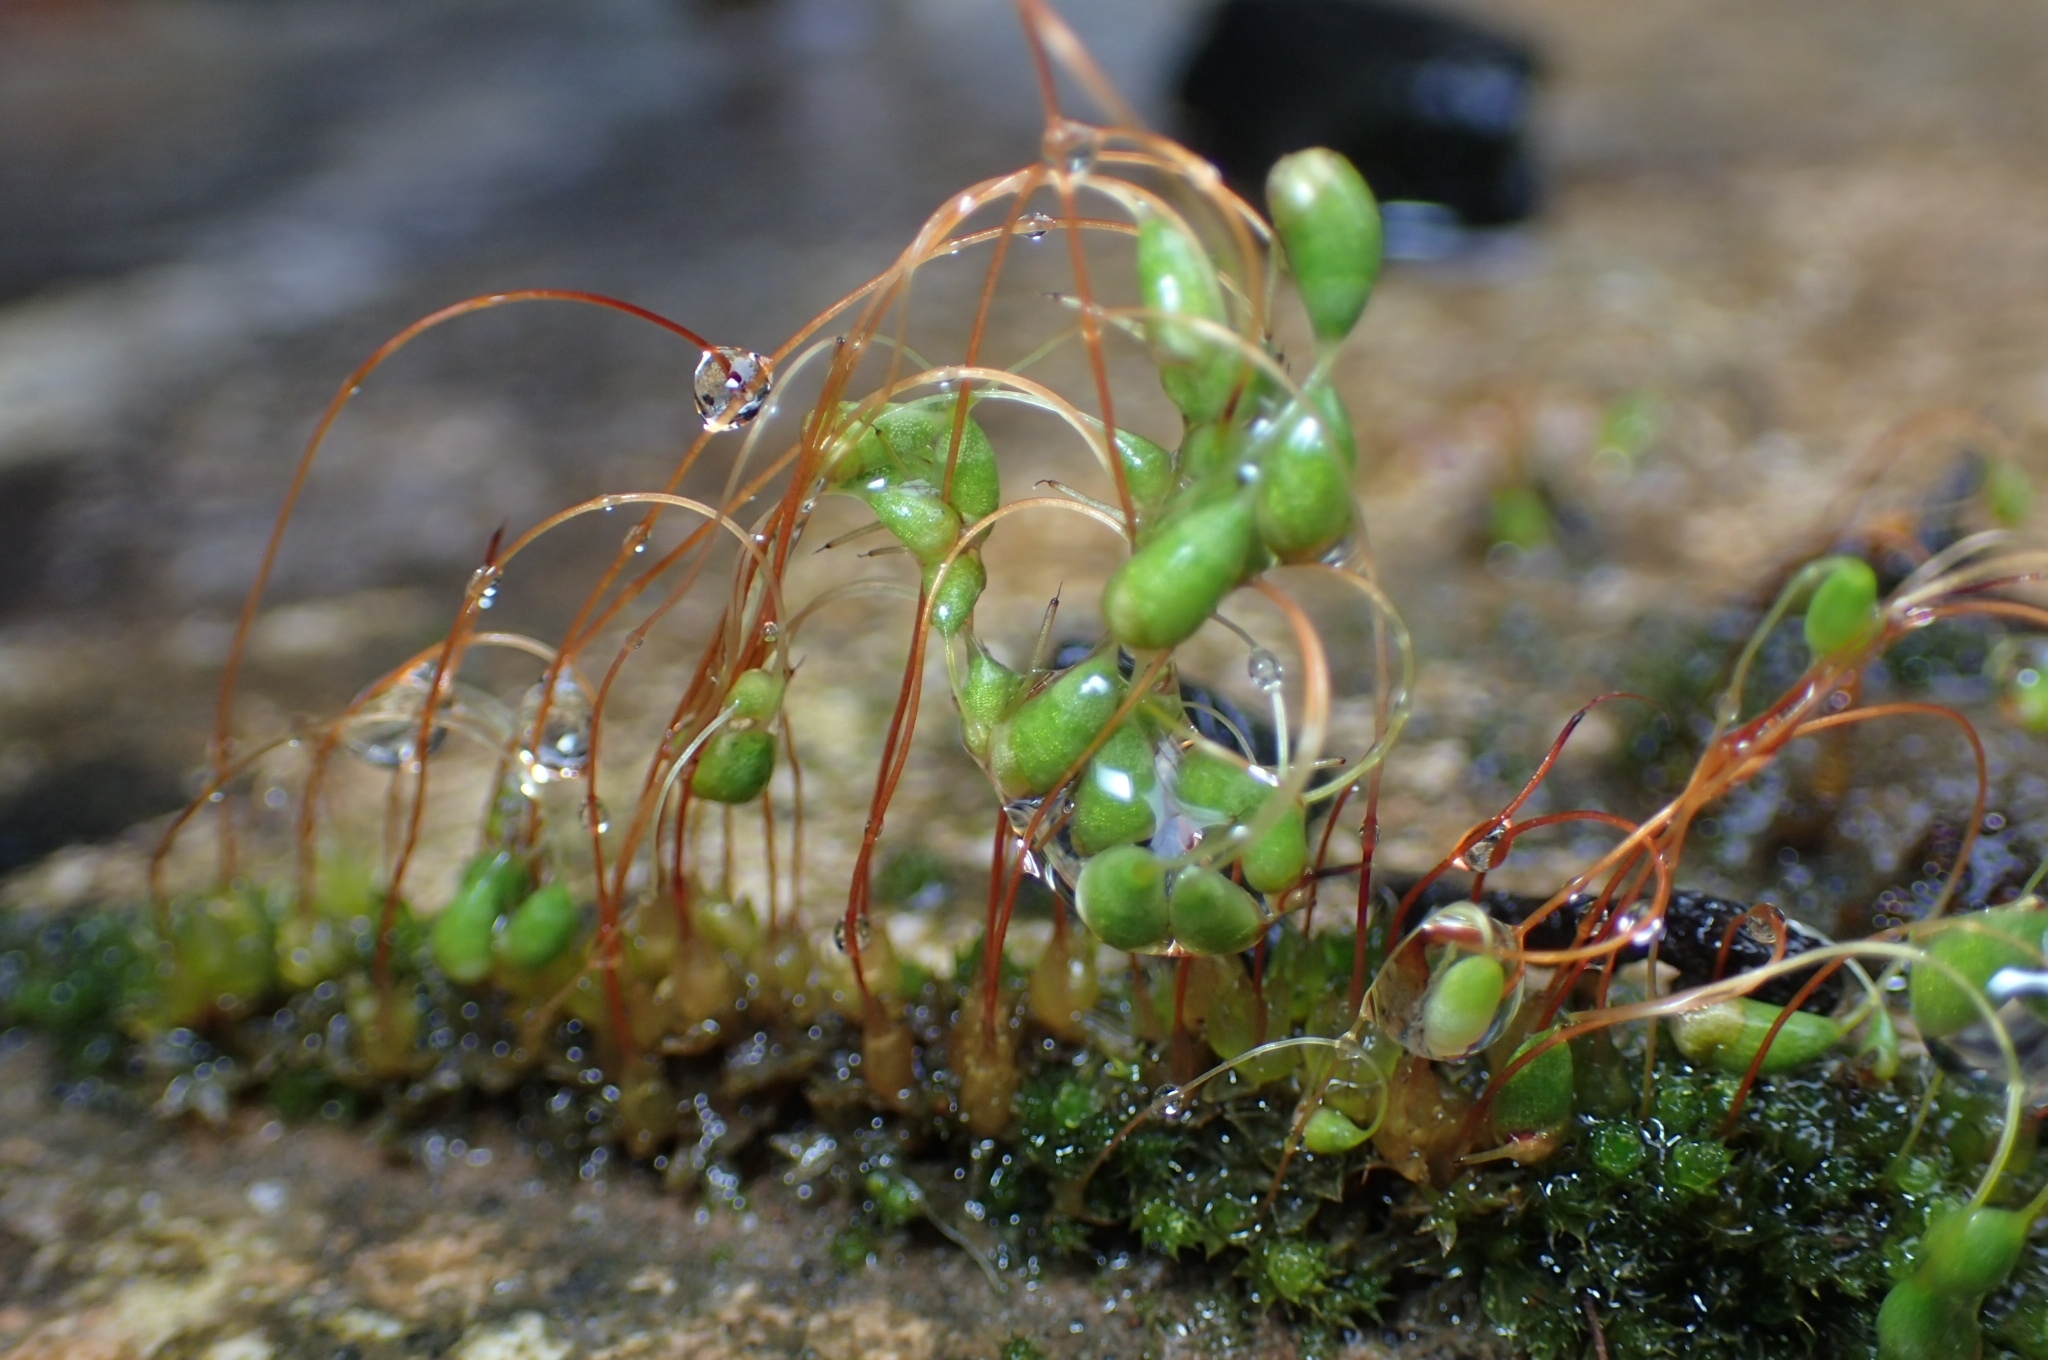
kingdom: Plantae
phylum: Bryophyta
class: Bryopsida
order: Funariales
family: Funariaceae
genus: Funaria
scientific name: Funaria hygrometrica
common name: Common cord moss
